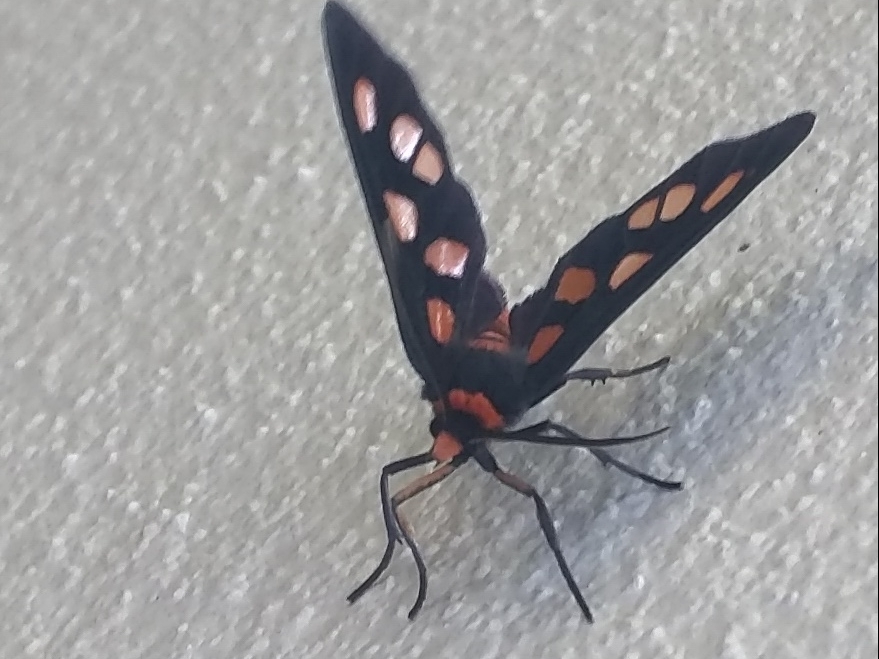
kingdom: Animalia
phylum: Arthropoda
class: Insecta
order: Lepidoptera
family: Erebidae
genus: Amata
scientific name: Amata nigriceps
